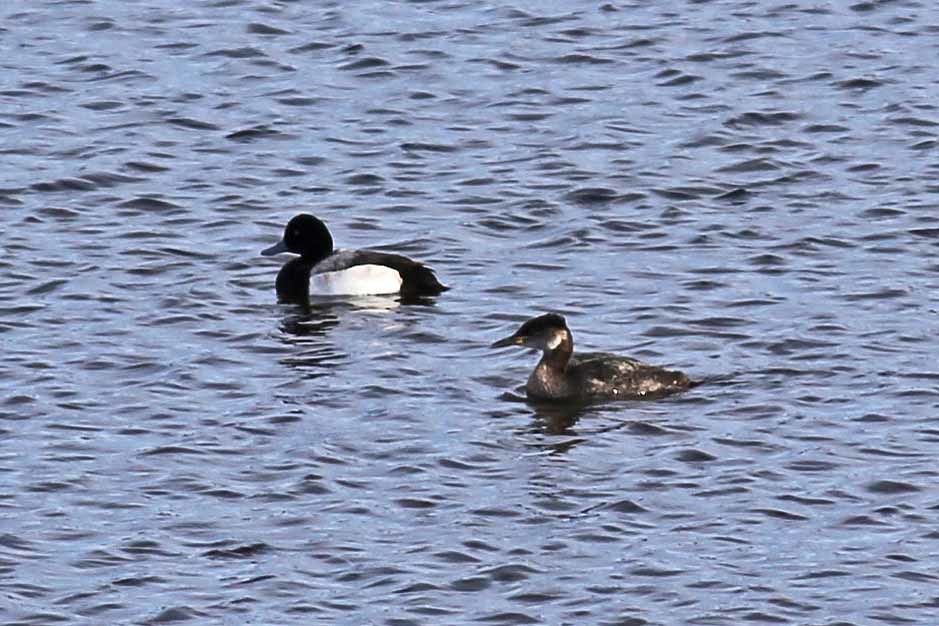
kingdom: Animalia
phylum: Chordata
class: Aves
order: Anseriformes
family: Anatidae
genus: Aythya
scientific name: Aythya marila
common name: Greater scaup
